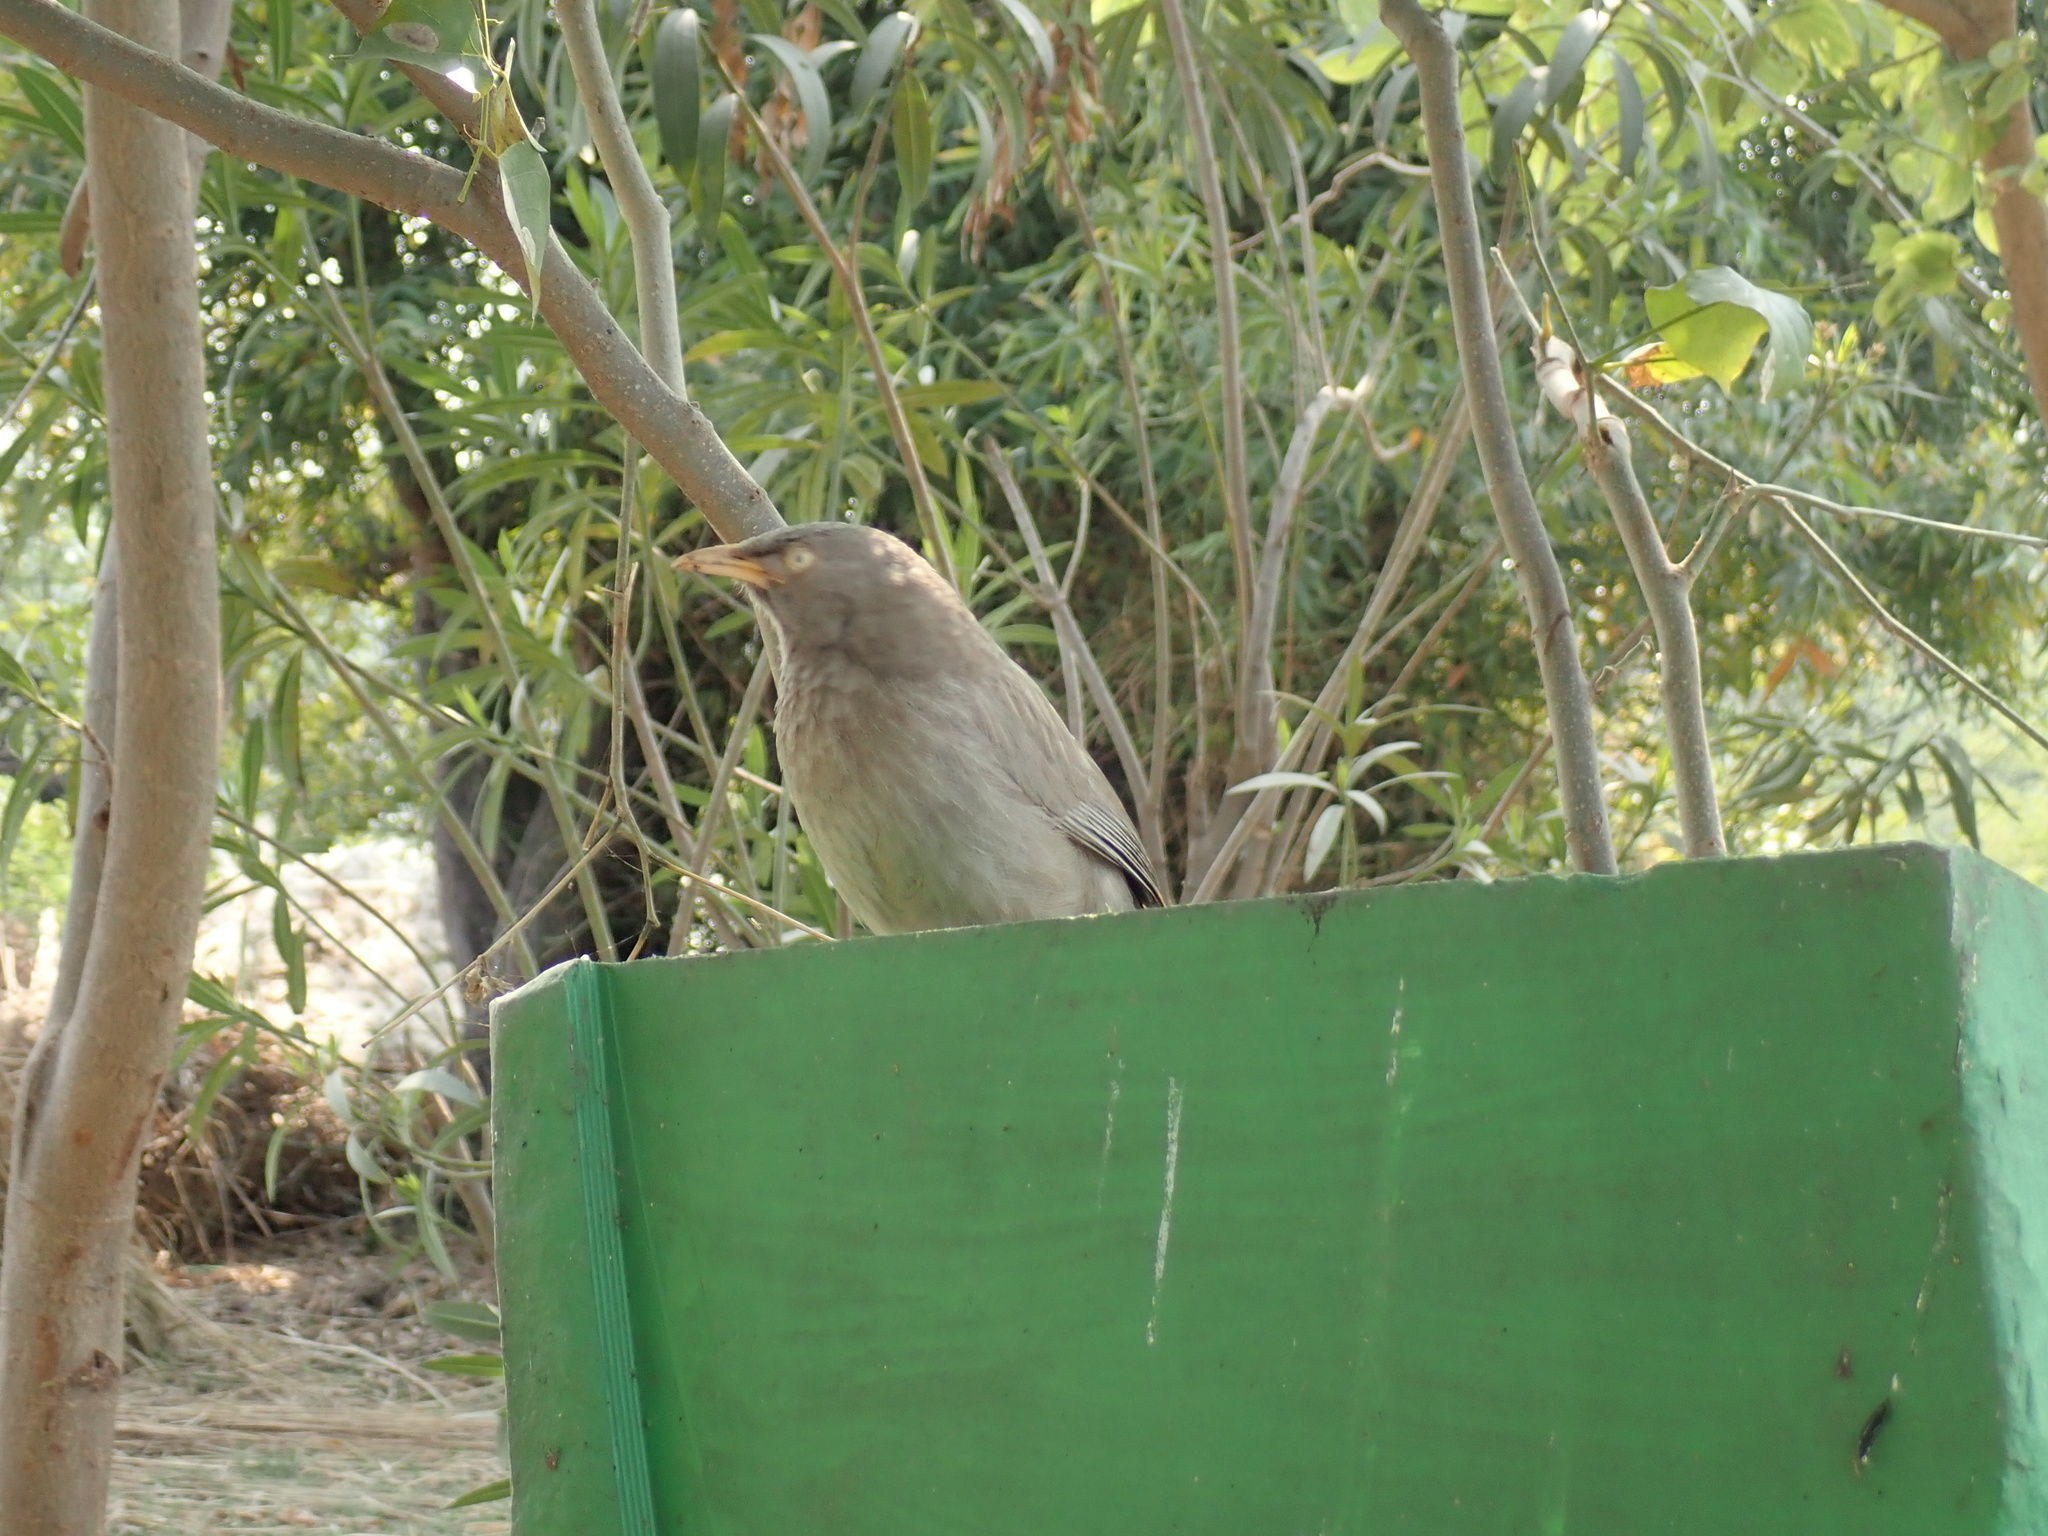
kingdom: Animalia
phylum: Chordata
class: Aves
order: Passeriformes
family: Leiothrichidae
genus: Turdoides
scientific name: Turdoides striata
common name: Jungle babbler
